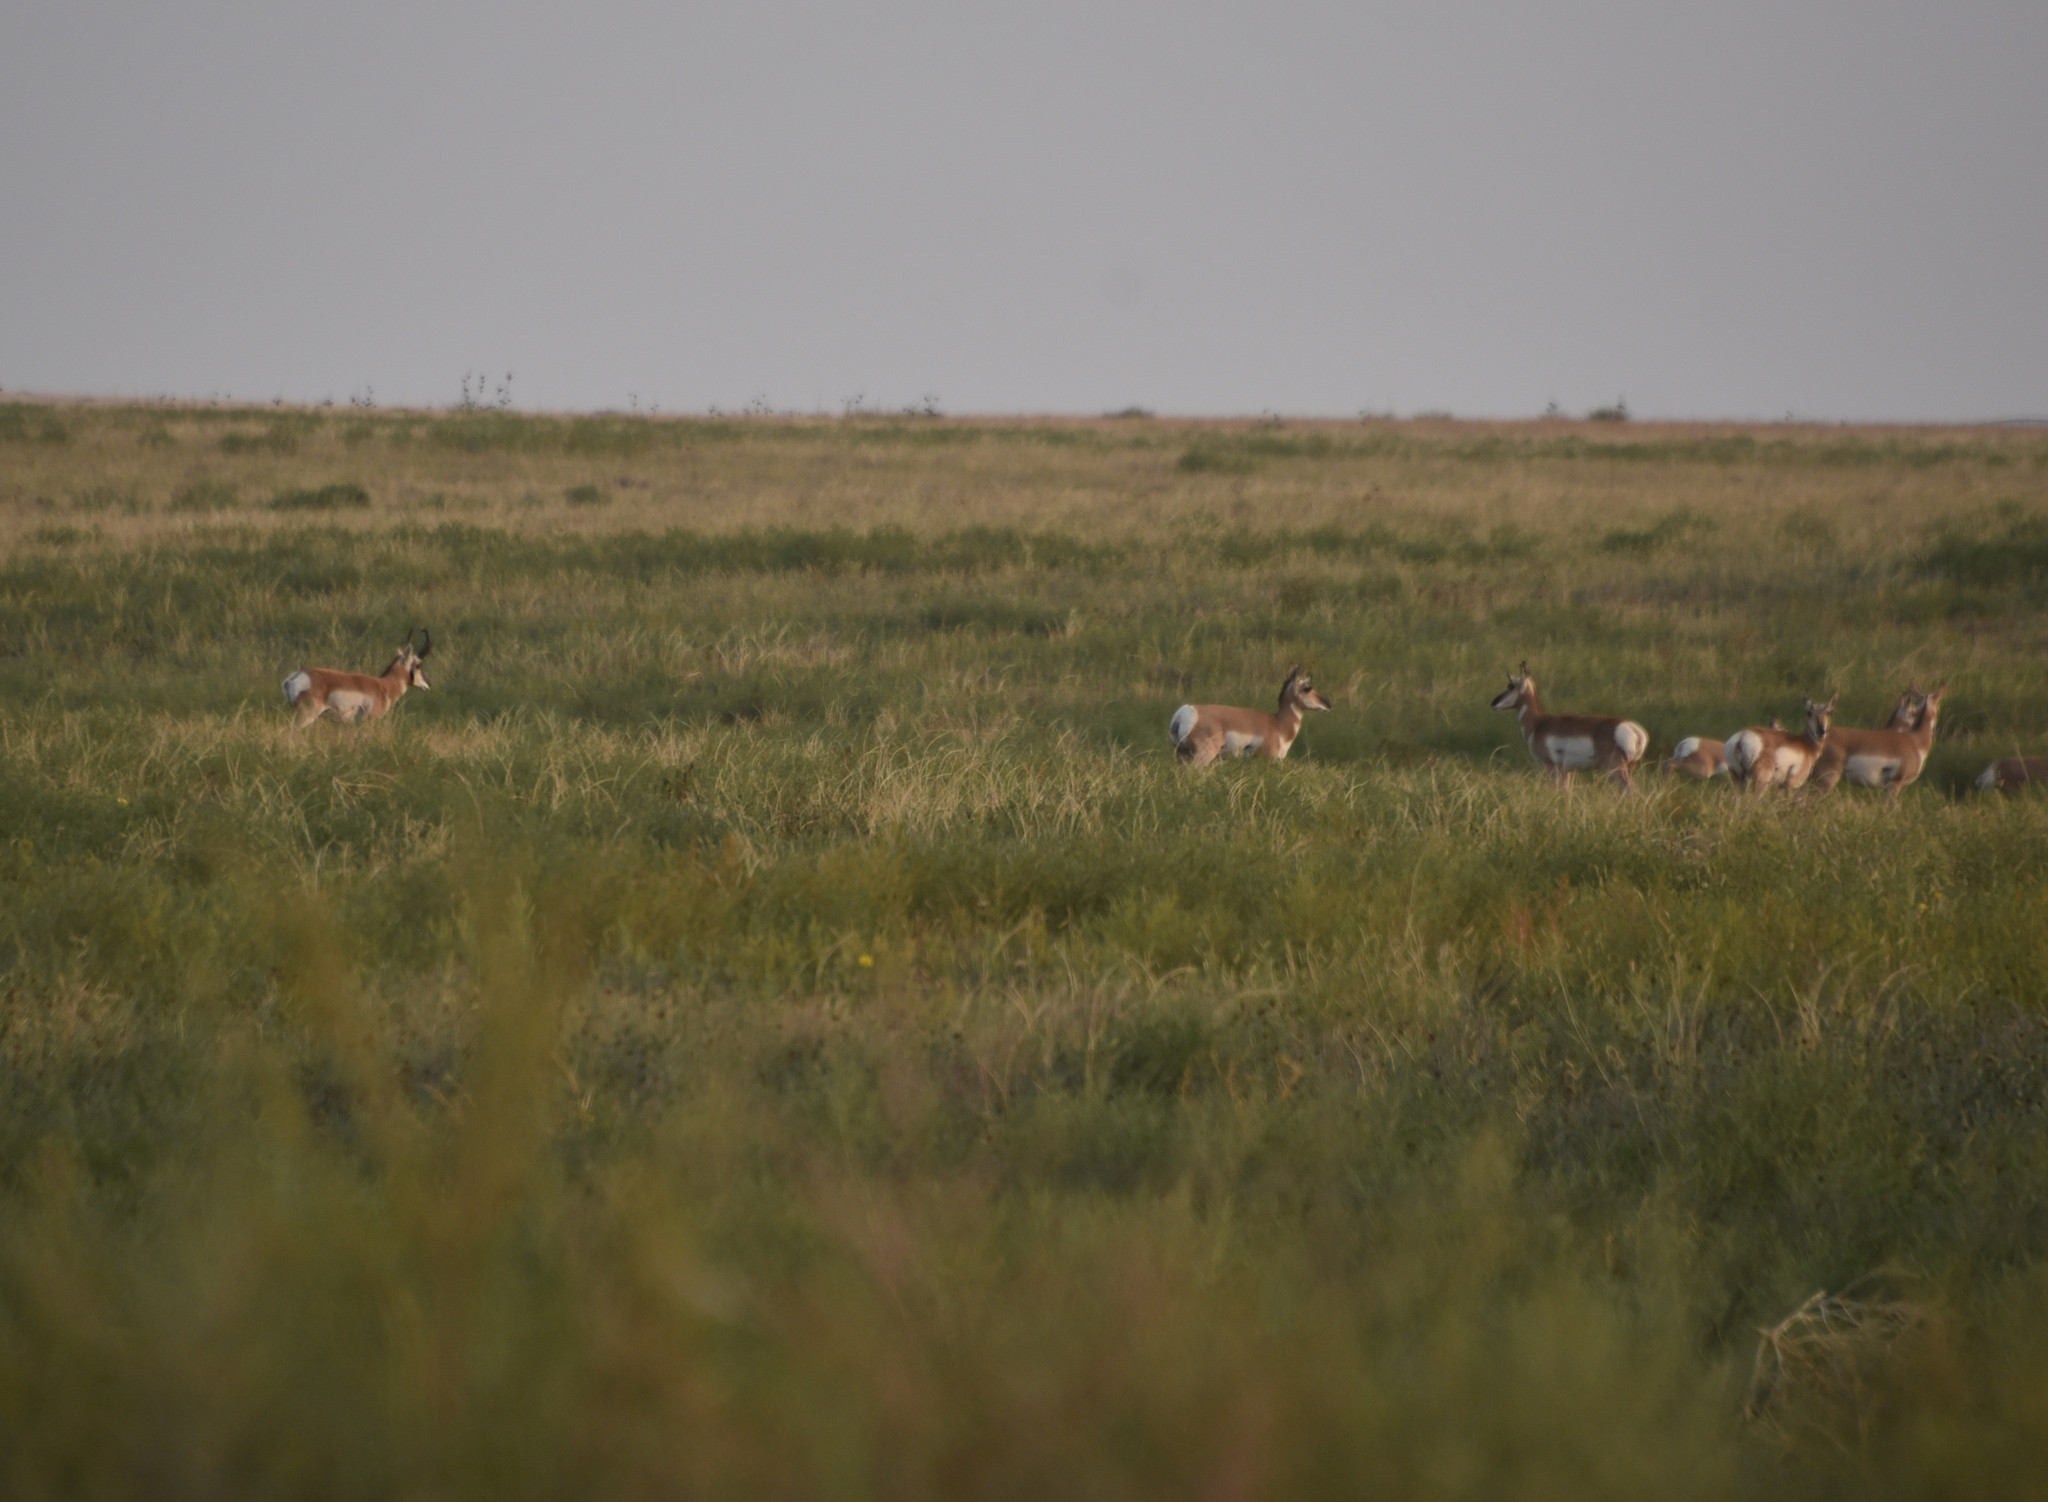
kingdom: Animalia
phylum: Chordata
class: Mammalia
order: Artiodactyla
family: Antilocapridae
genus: Antilocapra
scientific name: Antilocapra americana
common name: Pronghorn
